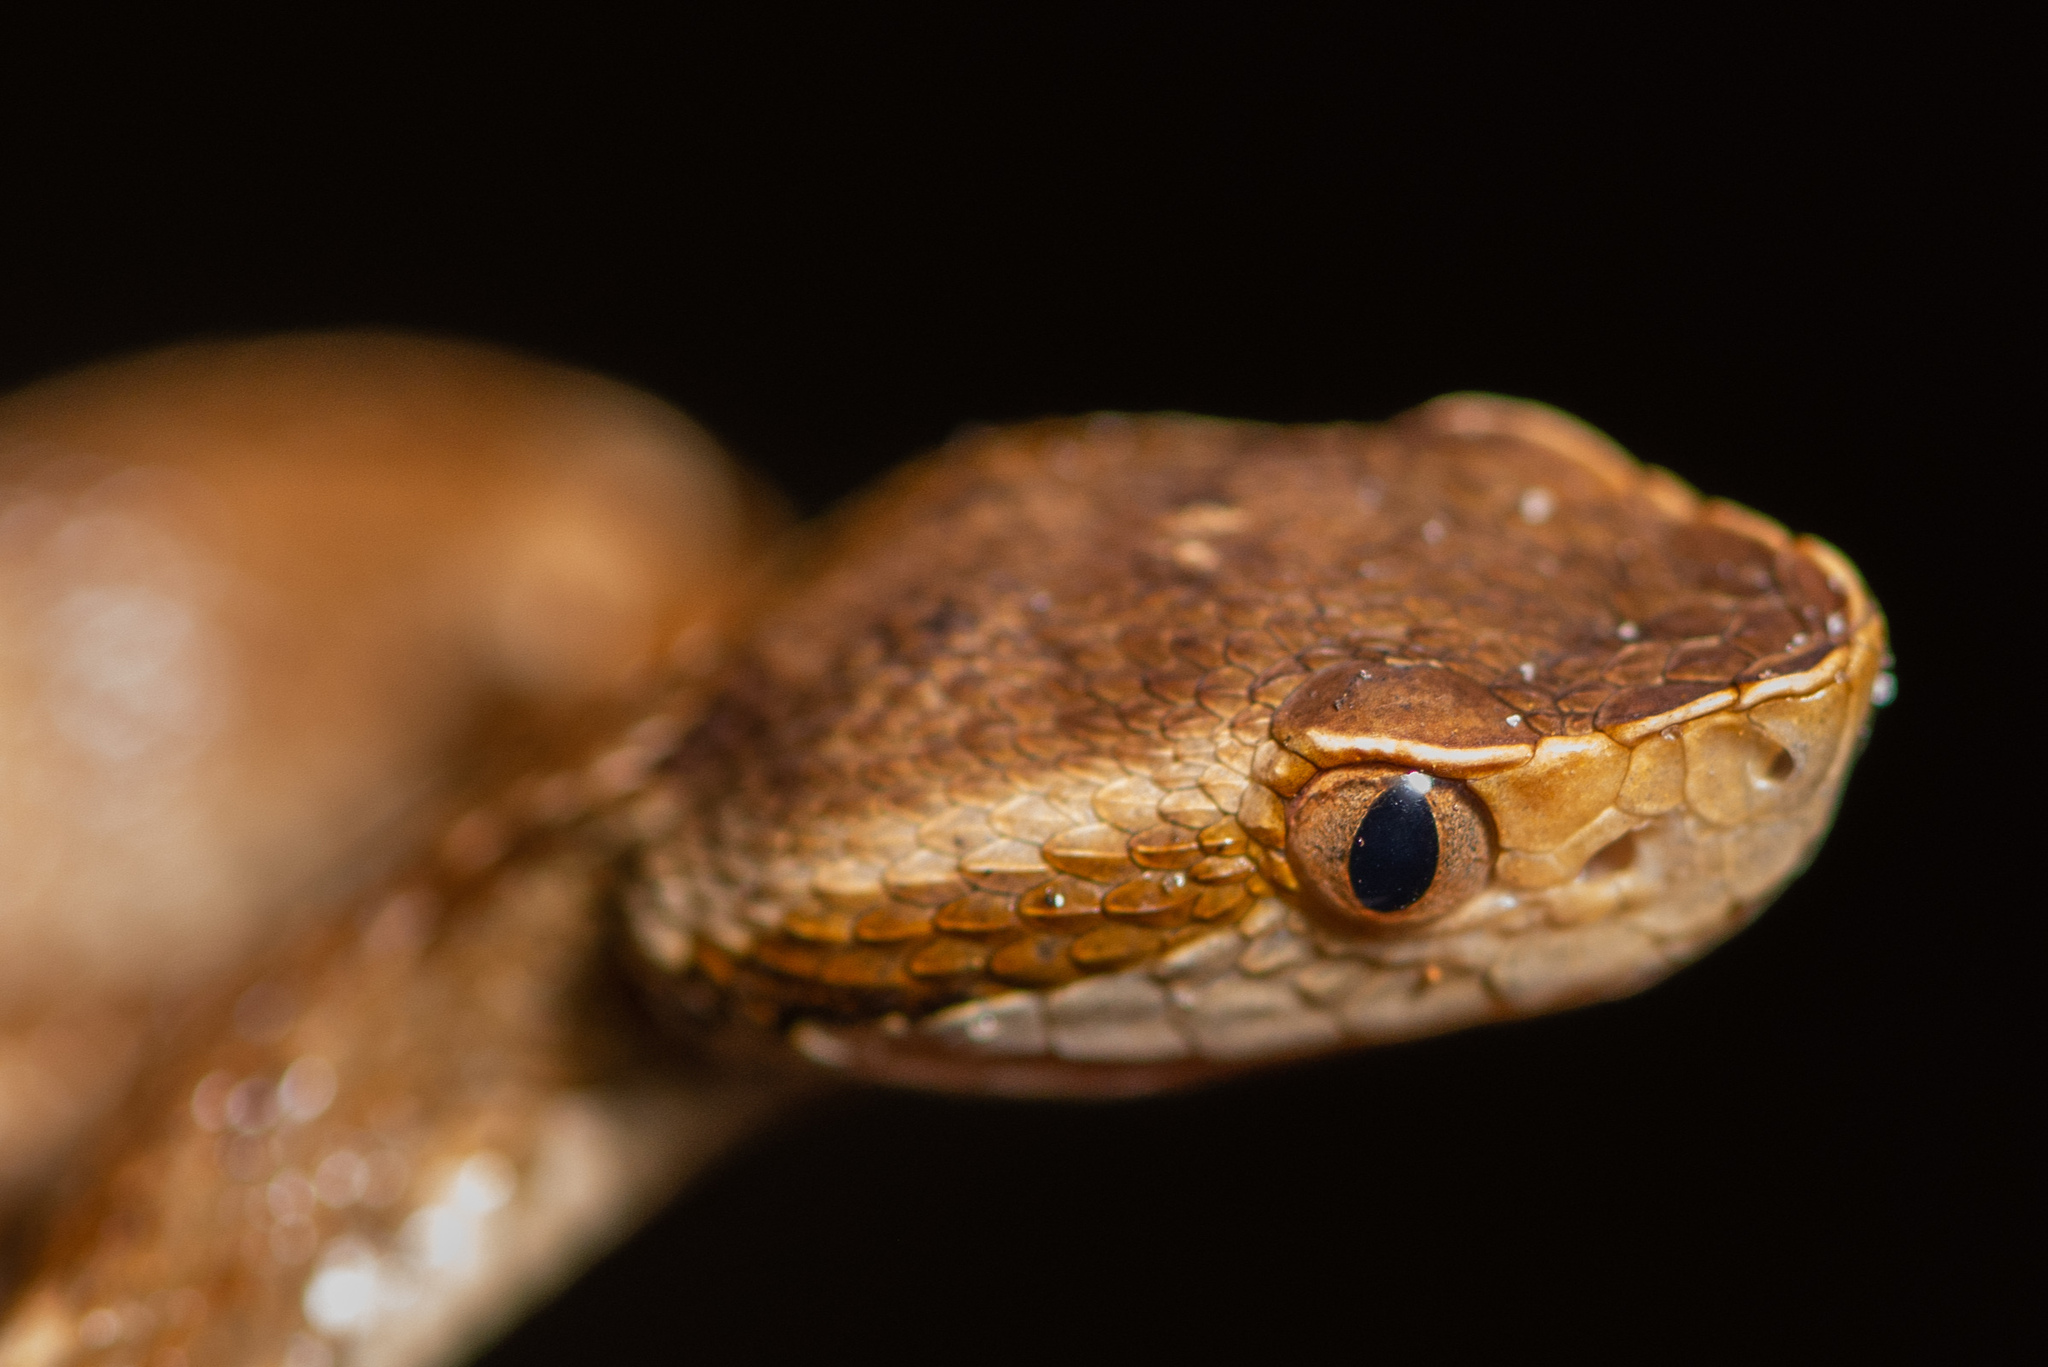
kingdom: Animalia
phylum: Chordata
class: Squamata
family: Viperidae
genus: Bothrops
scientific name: Bothrops jararaca
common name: Jararaca
